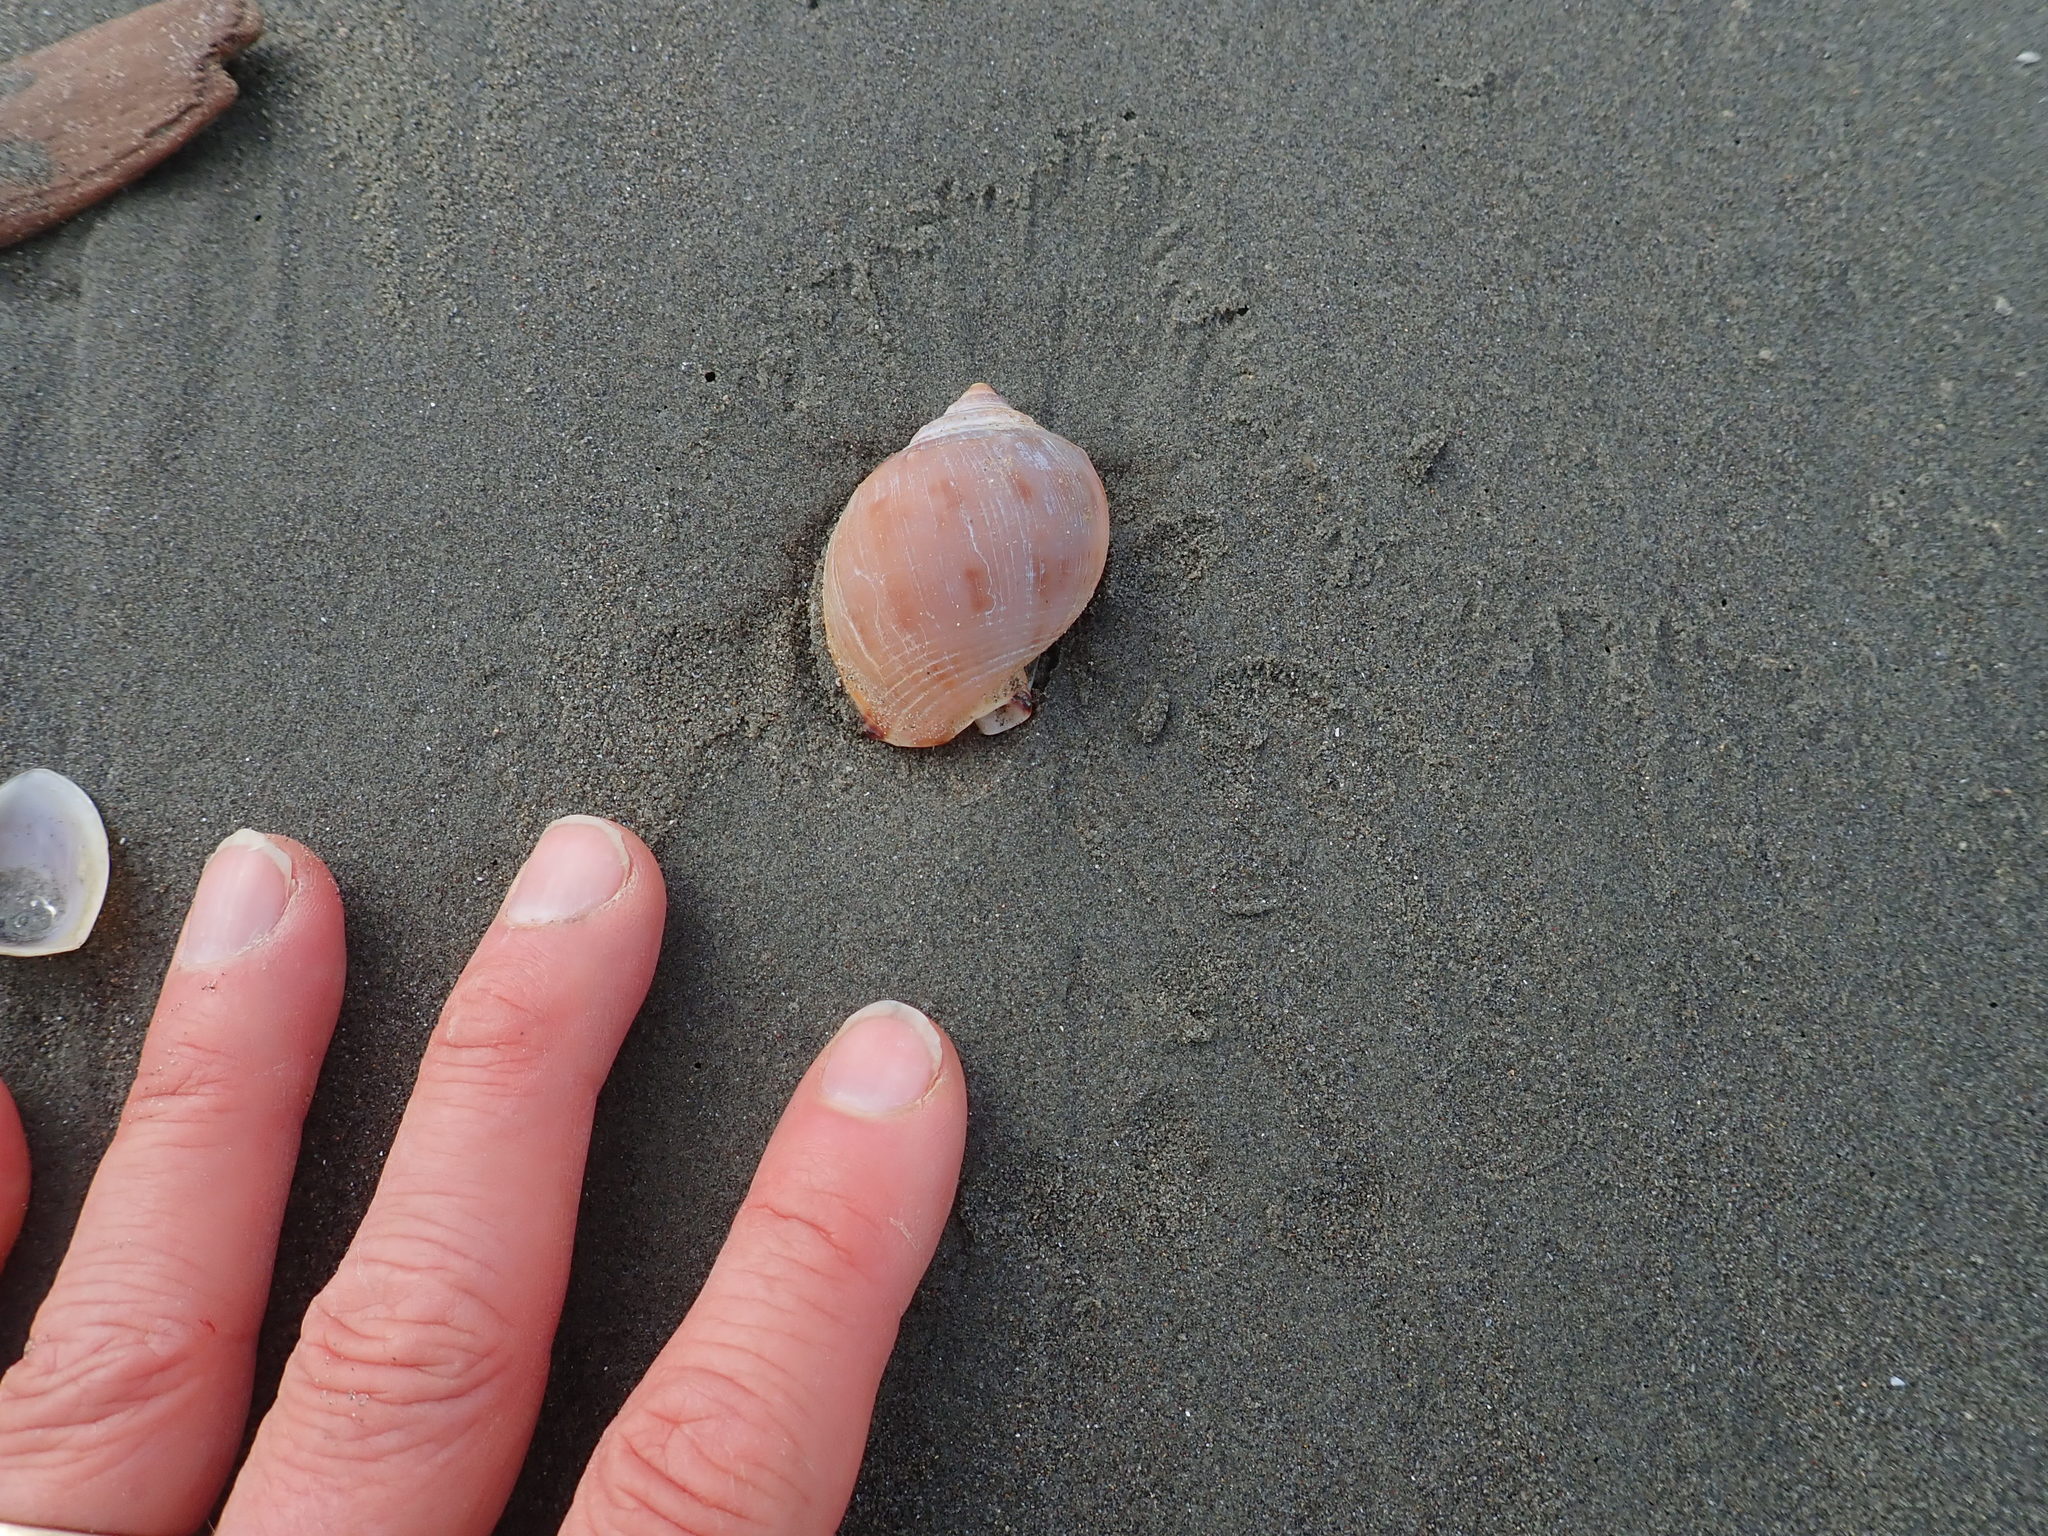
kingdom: Animalia
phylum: Mollusca
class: Gastropoda
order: Littorinimorpha
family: Cassidae
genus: Semicassis
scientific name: Semicassis pyrum
